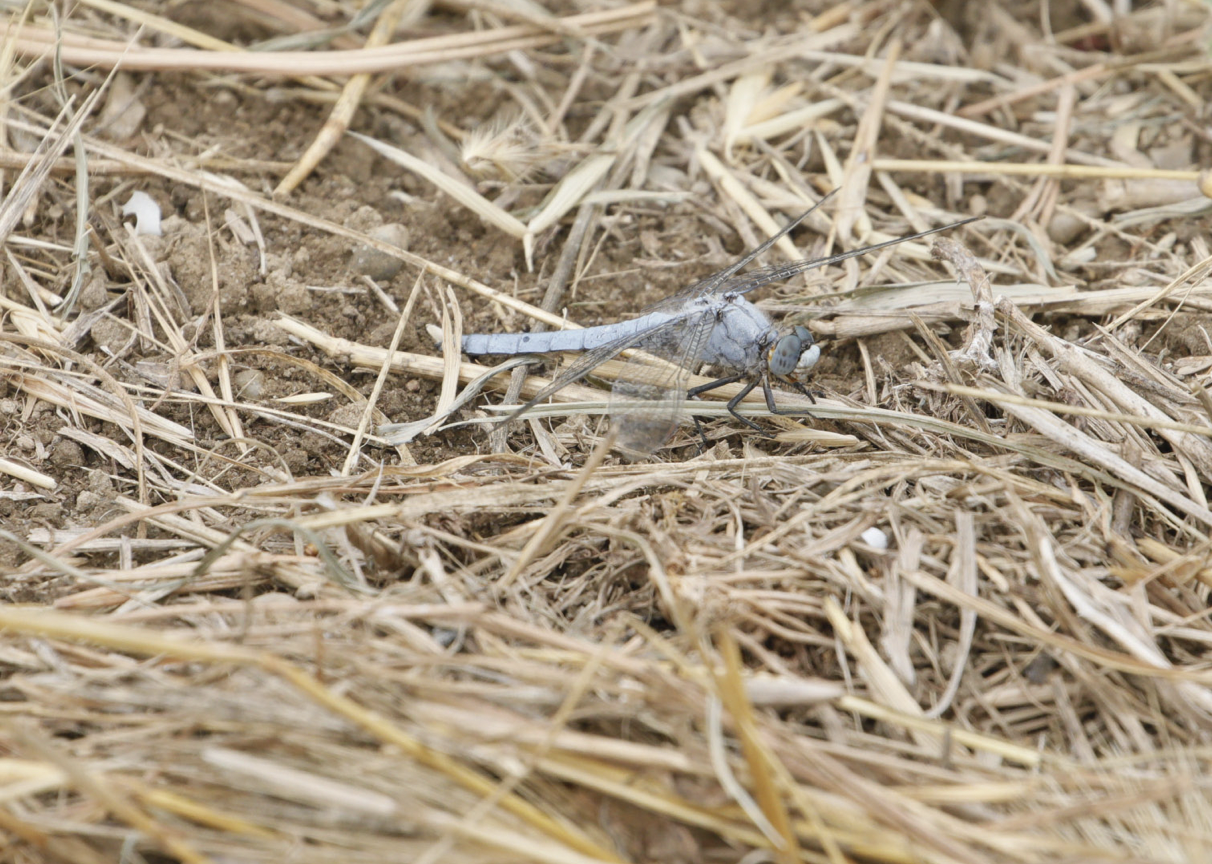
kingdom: Animalia
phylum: Arthropoda
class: Insecta
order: Odonata
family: Libellulidae
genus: Orthetrum
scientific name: Orthetrum brunneum
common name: Southern skimmer
